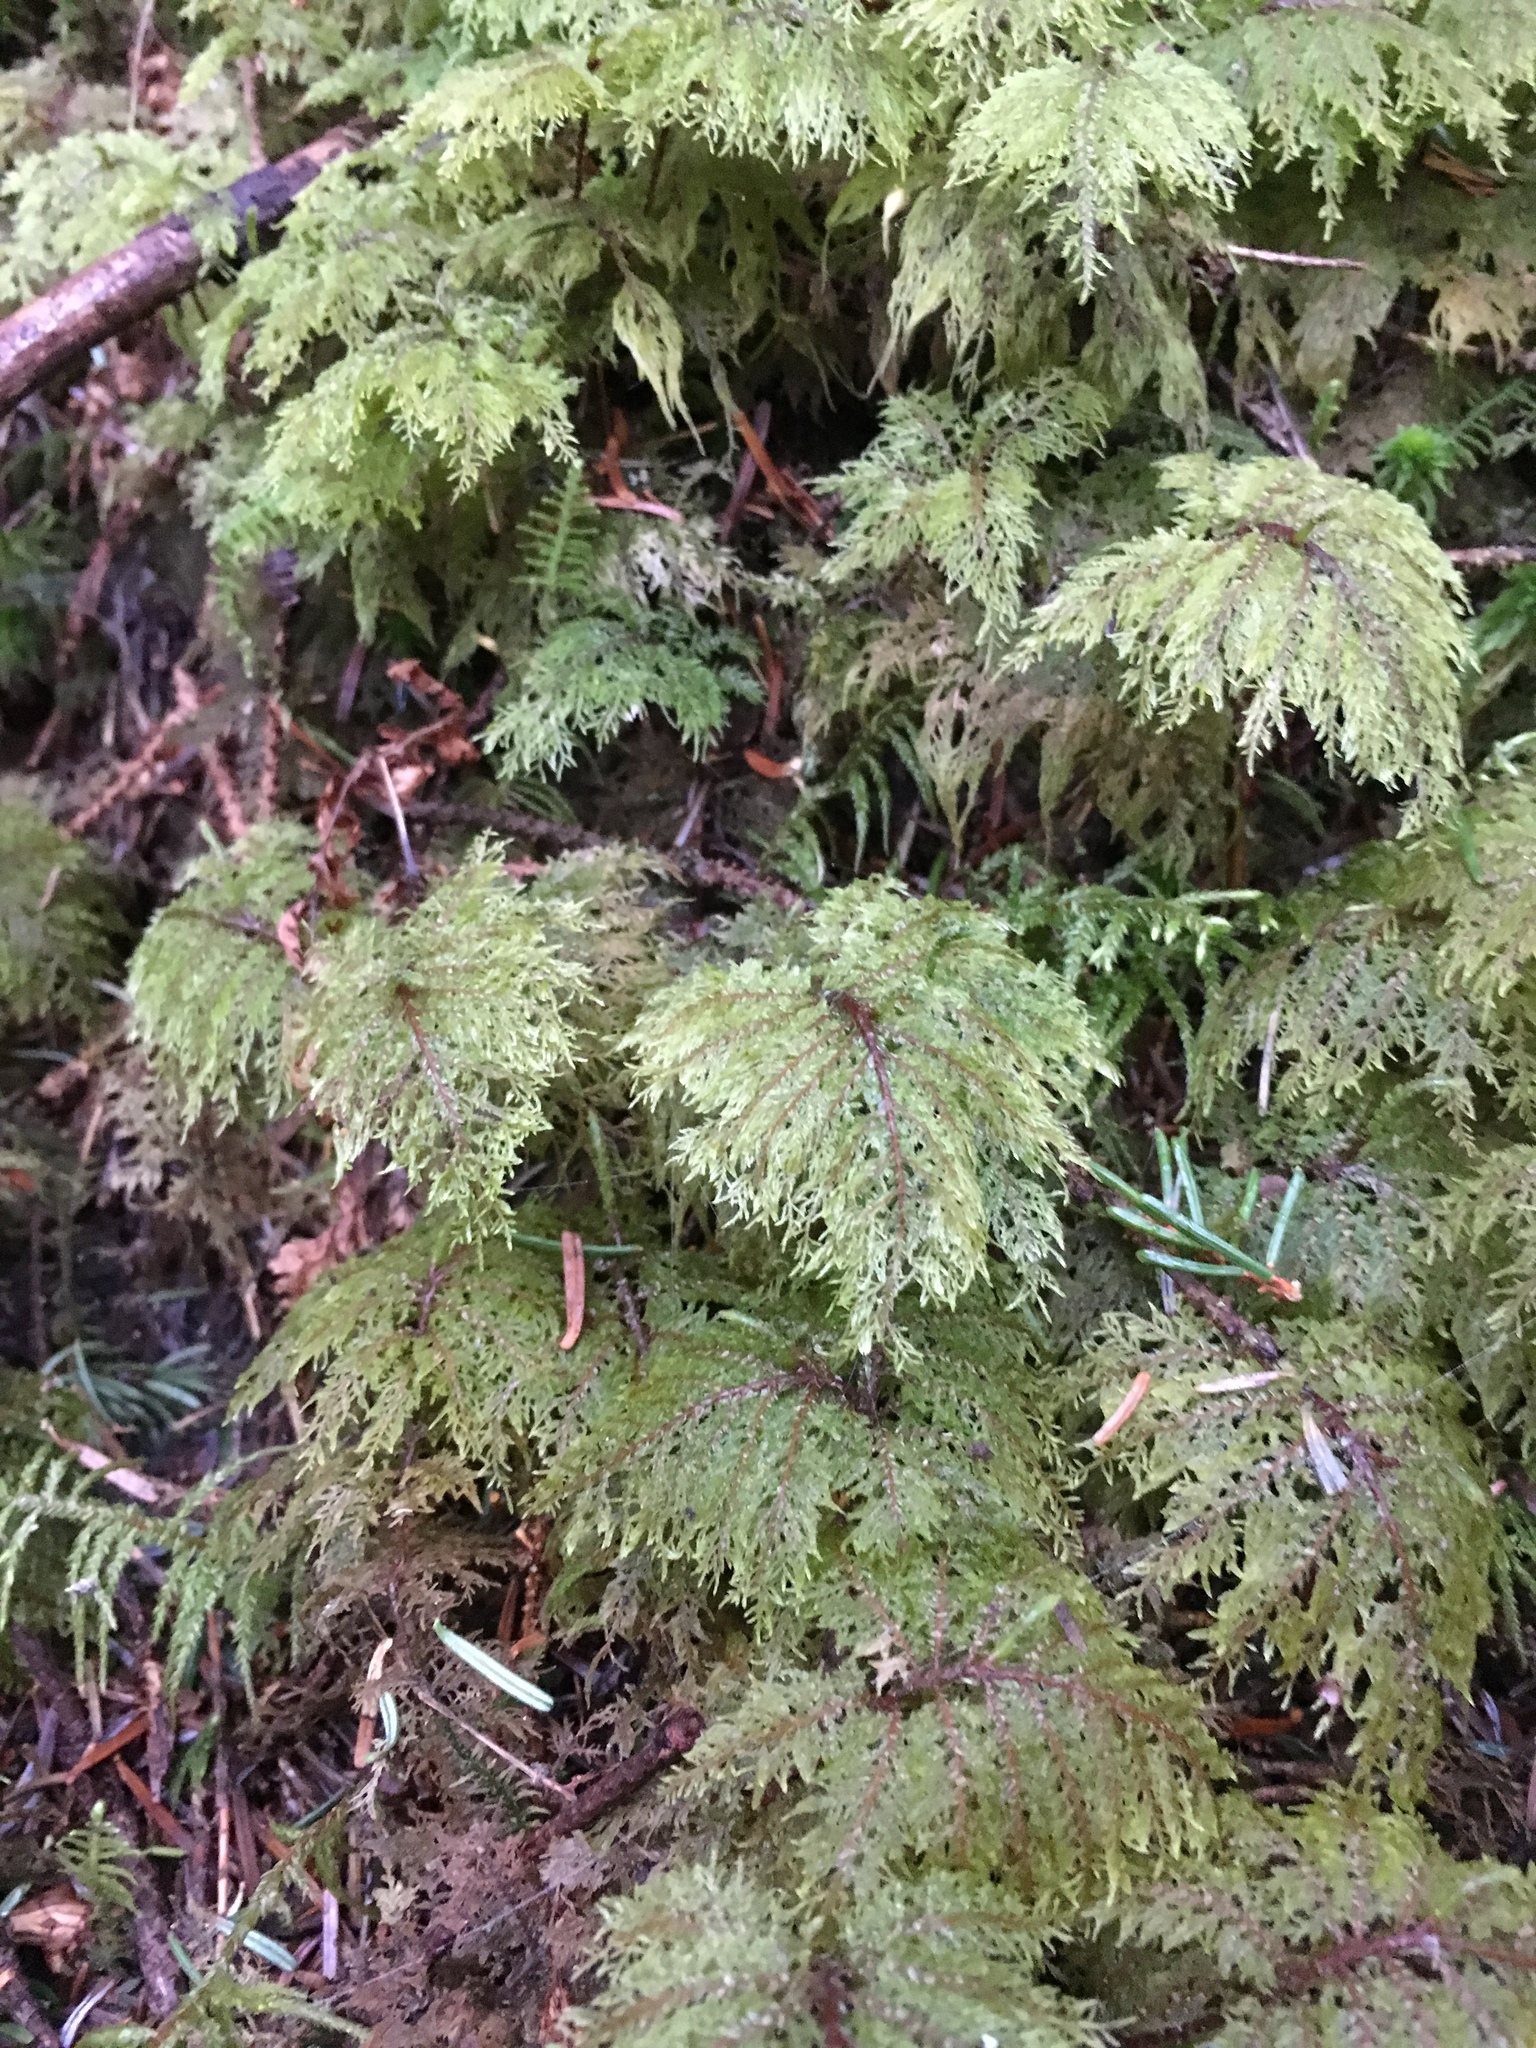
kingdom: Plantae
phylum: Bryophyta
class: Bryopsida
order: Hypnales
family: Hylocomiaceae
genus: Hylocomium
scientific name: Hylocomium splendens
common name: Stairstep moss
